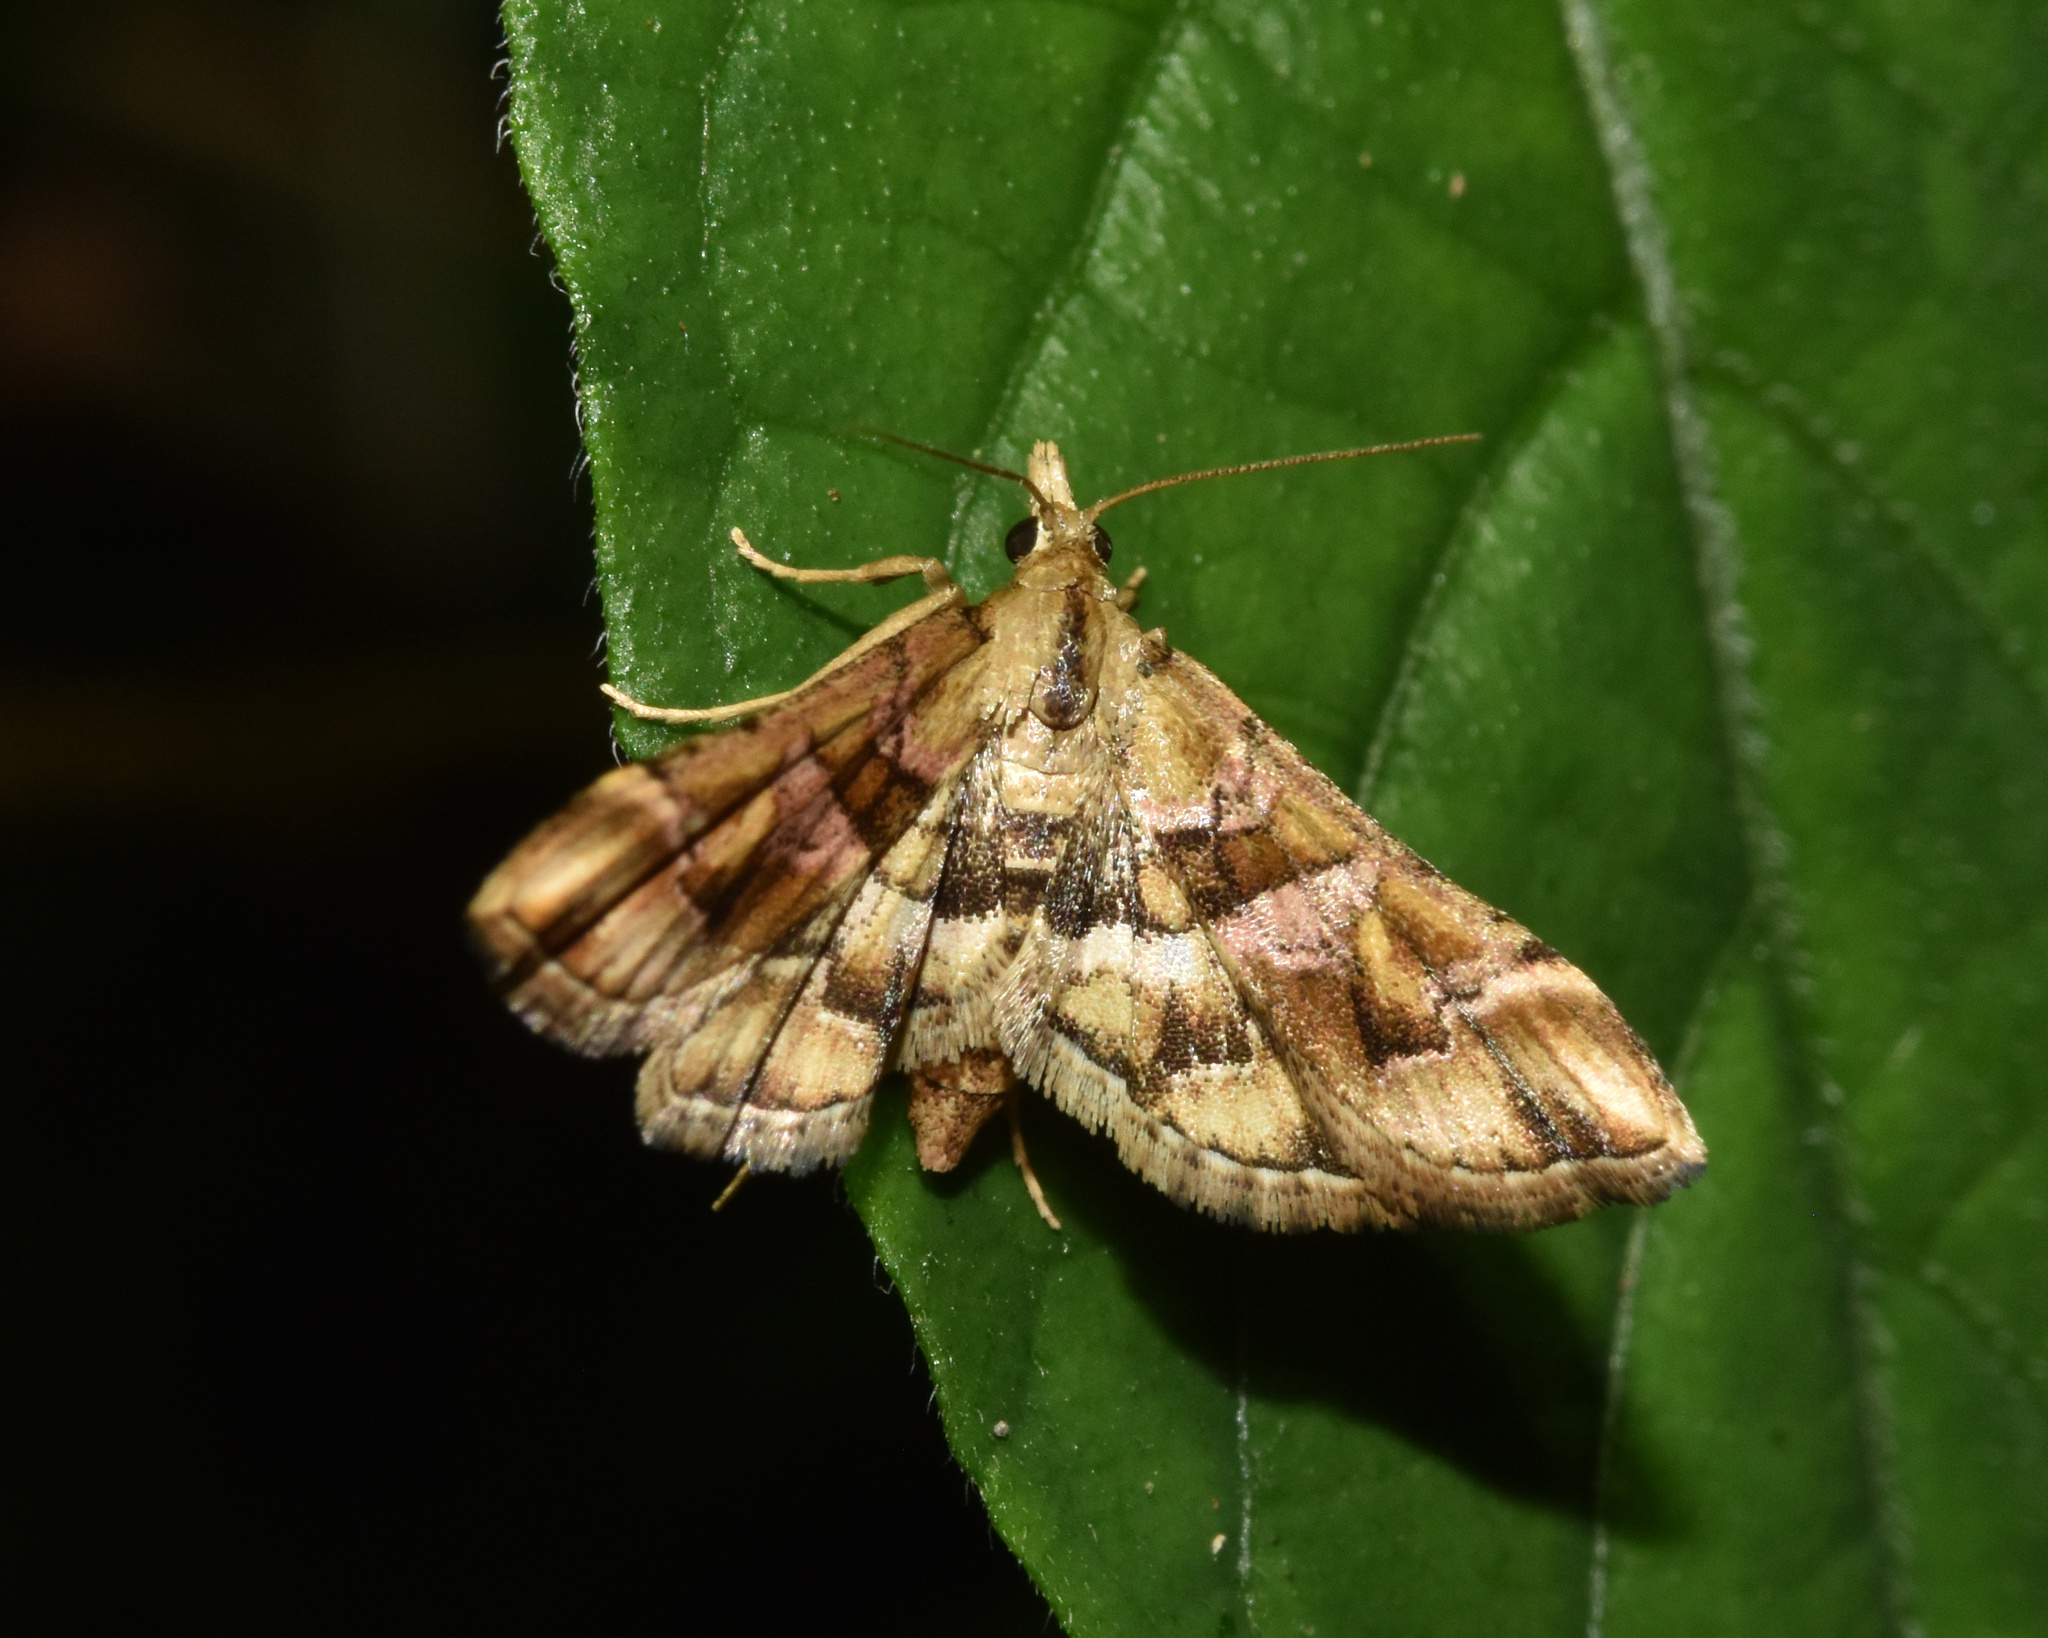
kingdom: Animalia
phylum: Arthropoda
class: Insecta
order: Lepidoptera
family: Crambidae
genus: Diasemia
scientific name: Diasemia lunalis
